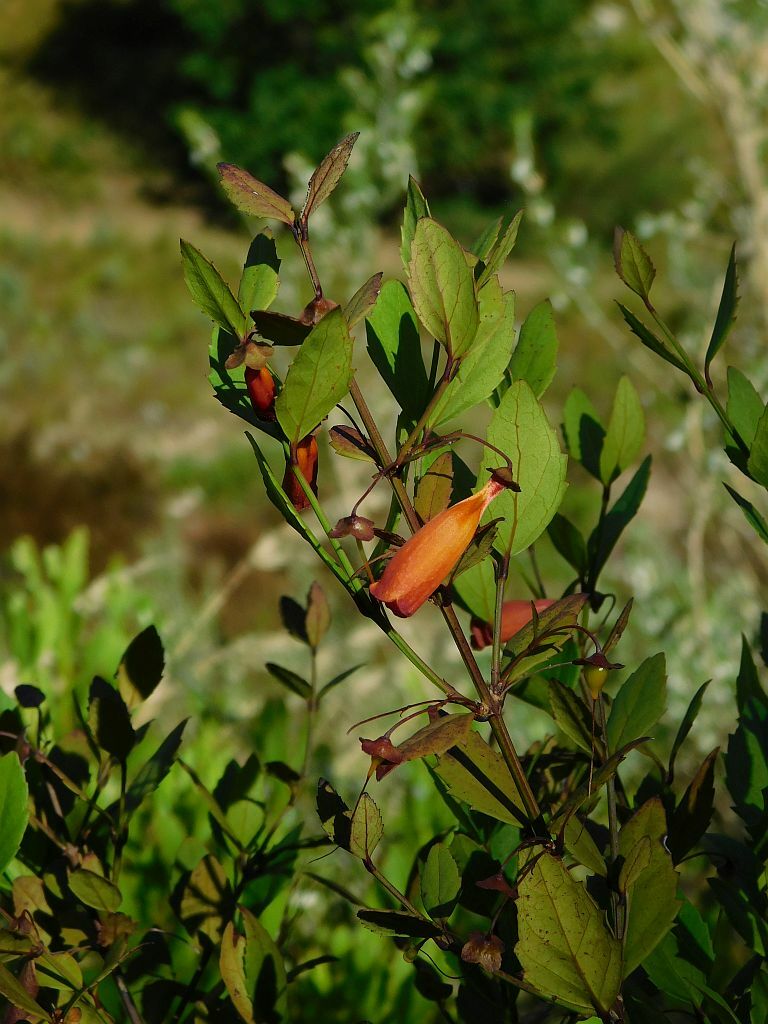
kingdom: Plantae
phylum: Tracheophyta
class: Magnoliopsida
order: Lamiales
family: Stilbaceae
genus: Halleria
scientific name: Halleria elliptica
